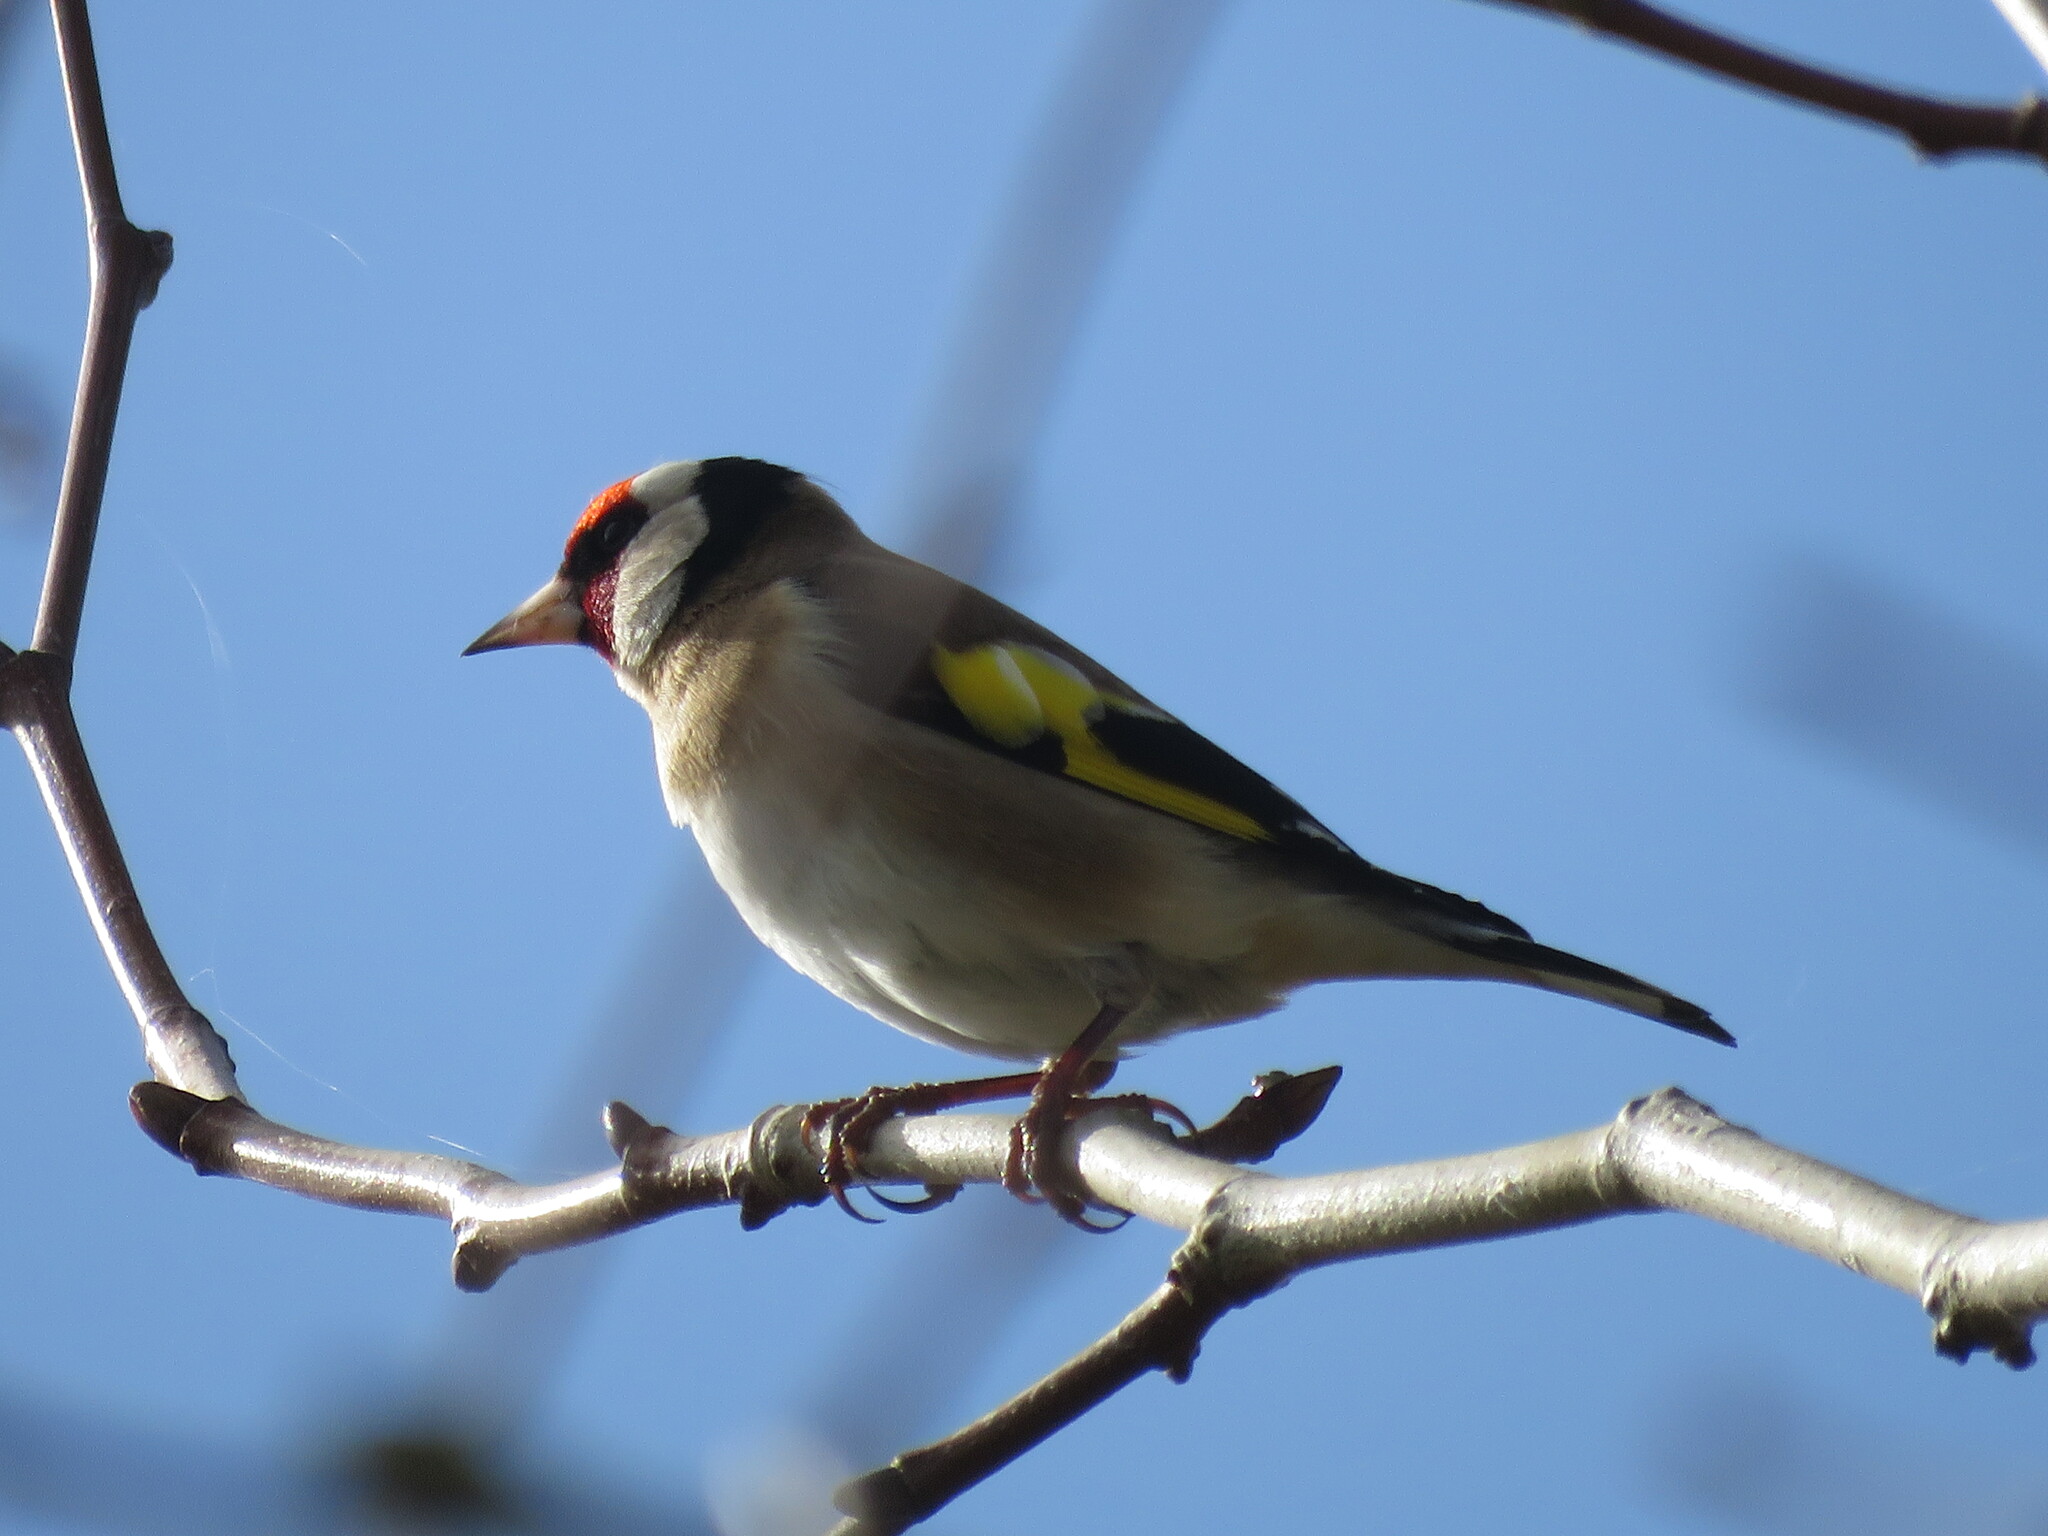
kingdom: Animalia
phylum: Chordata
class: Aves
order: Passeriformes
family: Fringillidae
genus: Carduelis
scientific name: Carduelis carduelis
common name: European goldfinch
